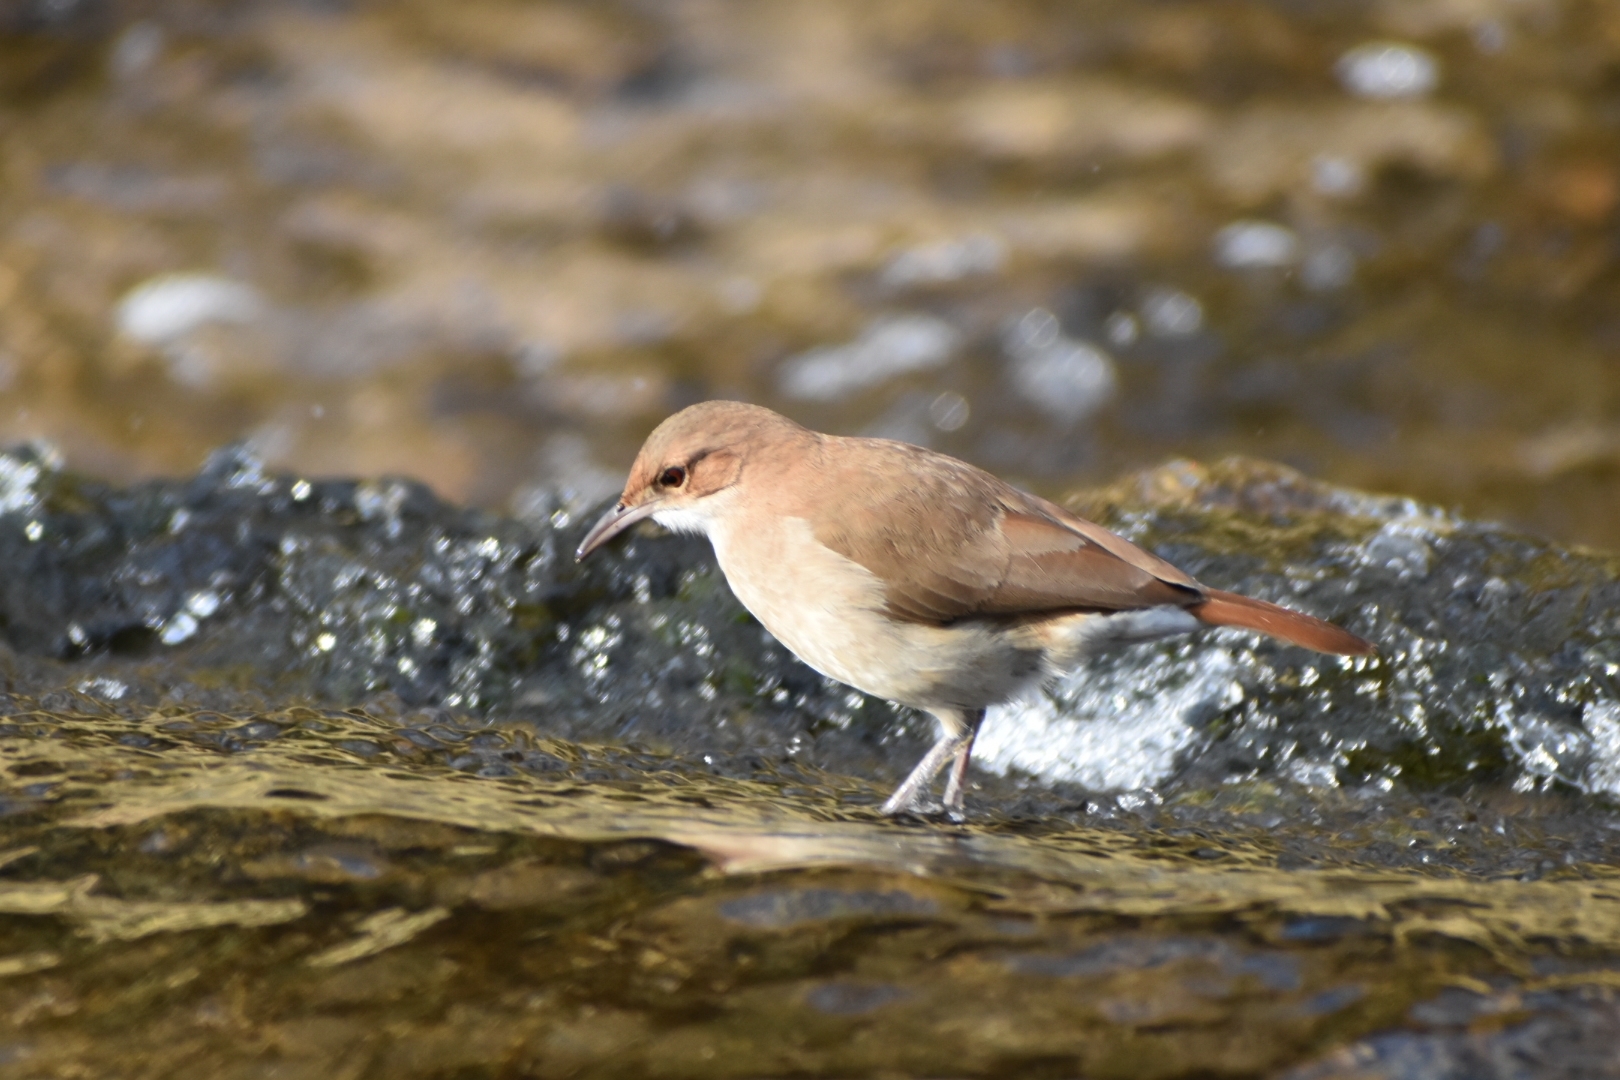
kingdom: Animalia
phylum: Chordata
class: Aves
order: Passeriformes
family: Furnariidae
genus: Furnarius
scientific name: Furnarius rufus
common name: Rufous hornero
